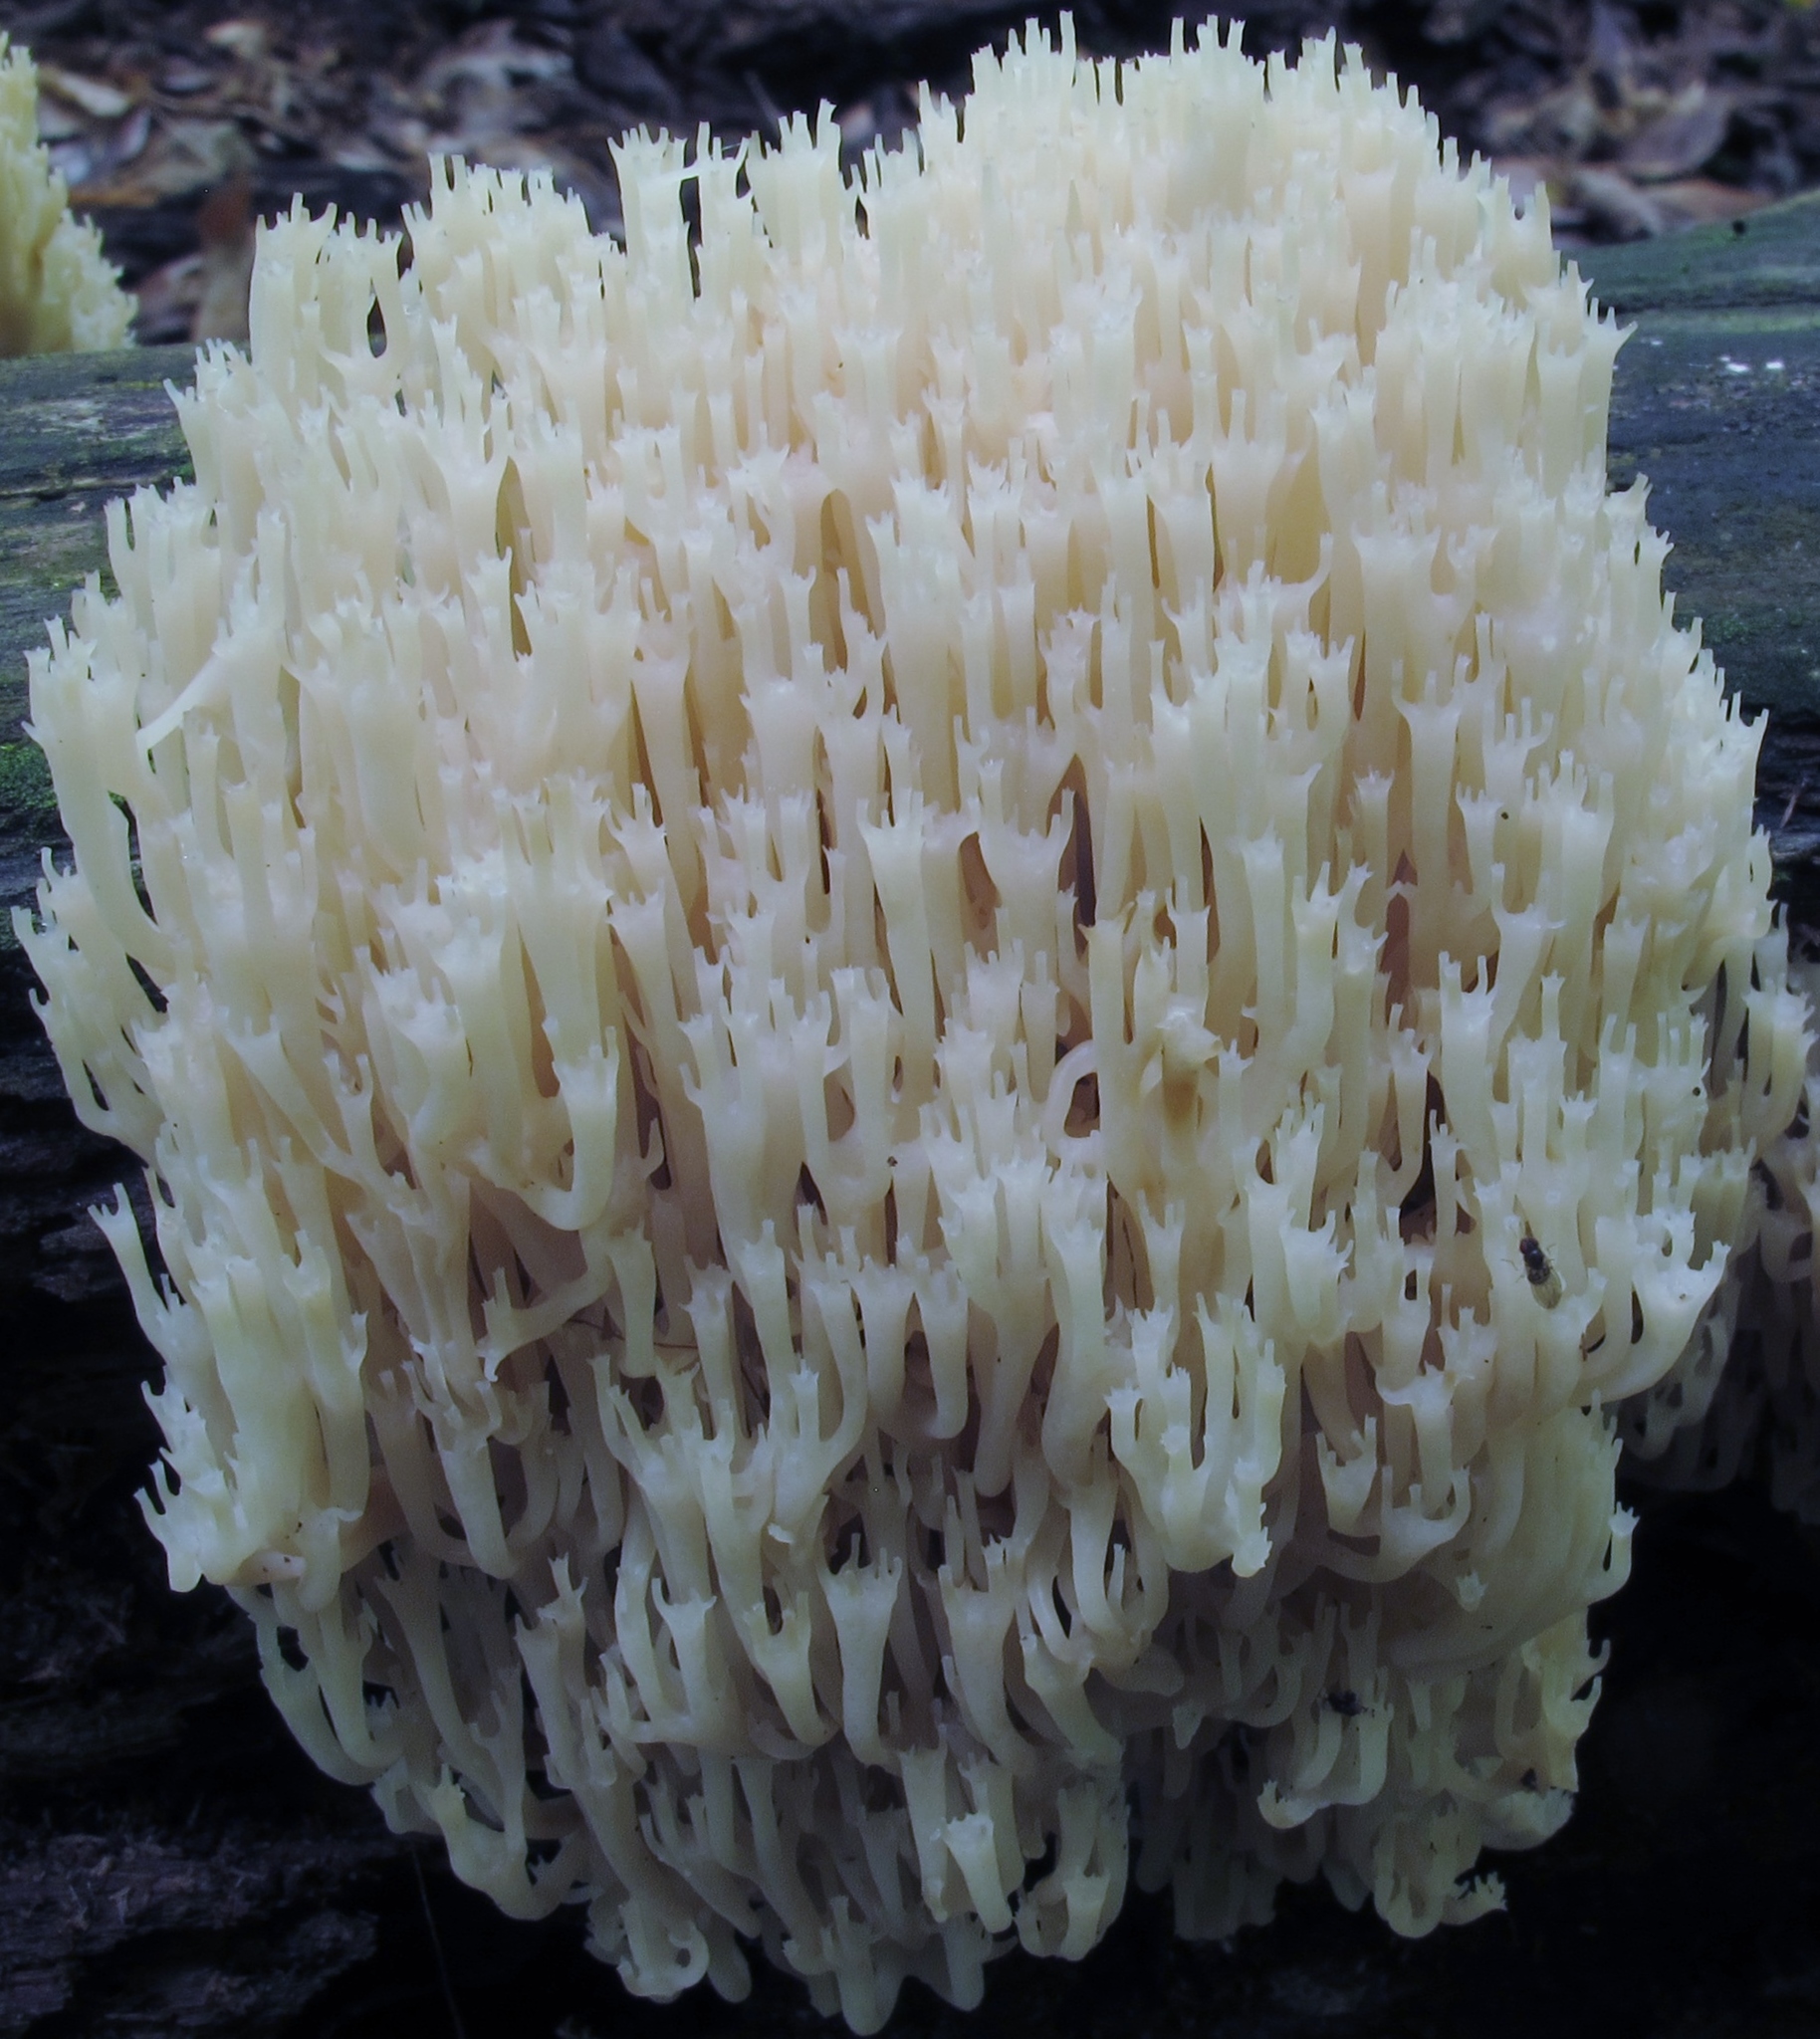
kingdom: Fungi
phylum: Basidiomycota
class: Agaricomycetes
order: Russulales
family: Auriscalpiaceae
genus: Artomyces
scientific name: Artomyces pyxidatus
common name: Crown-tipped coral fungus
